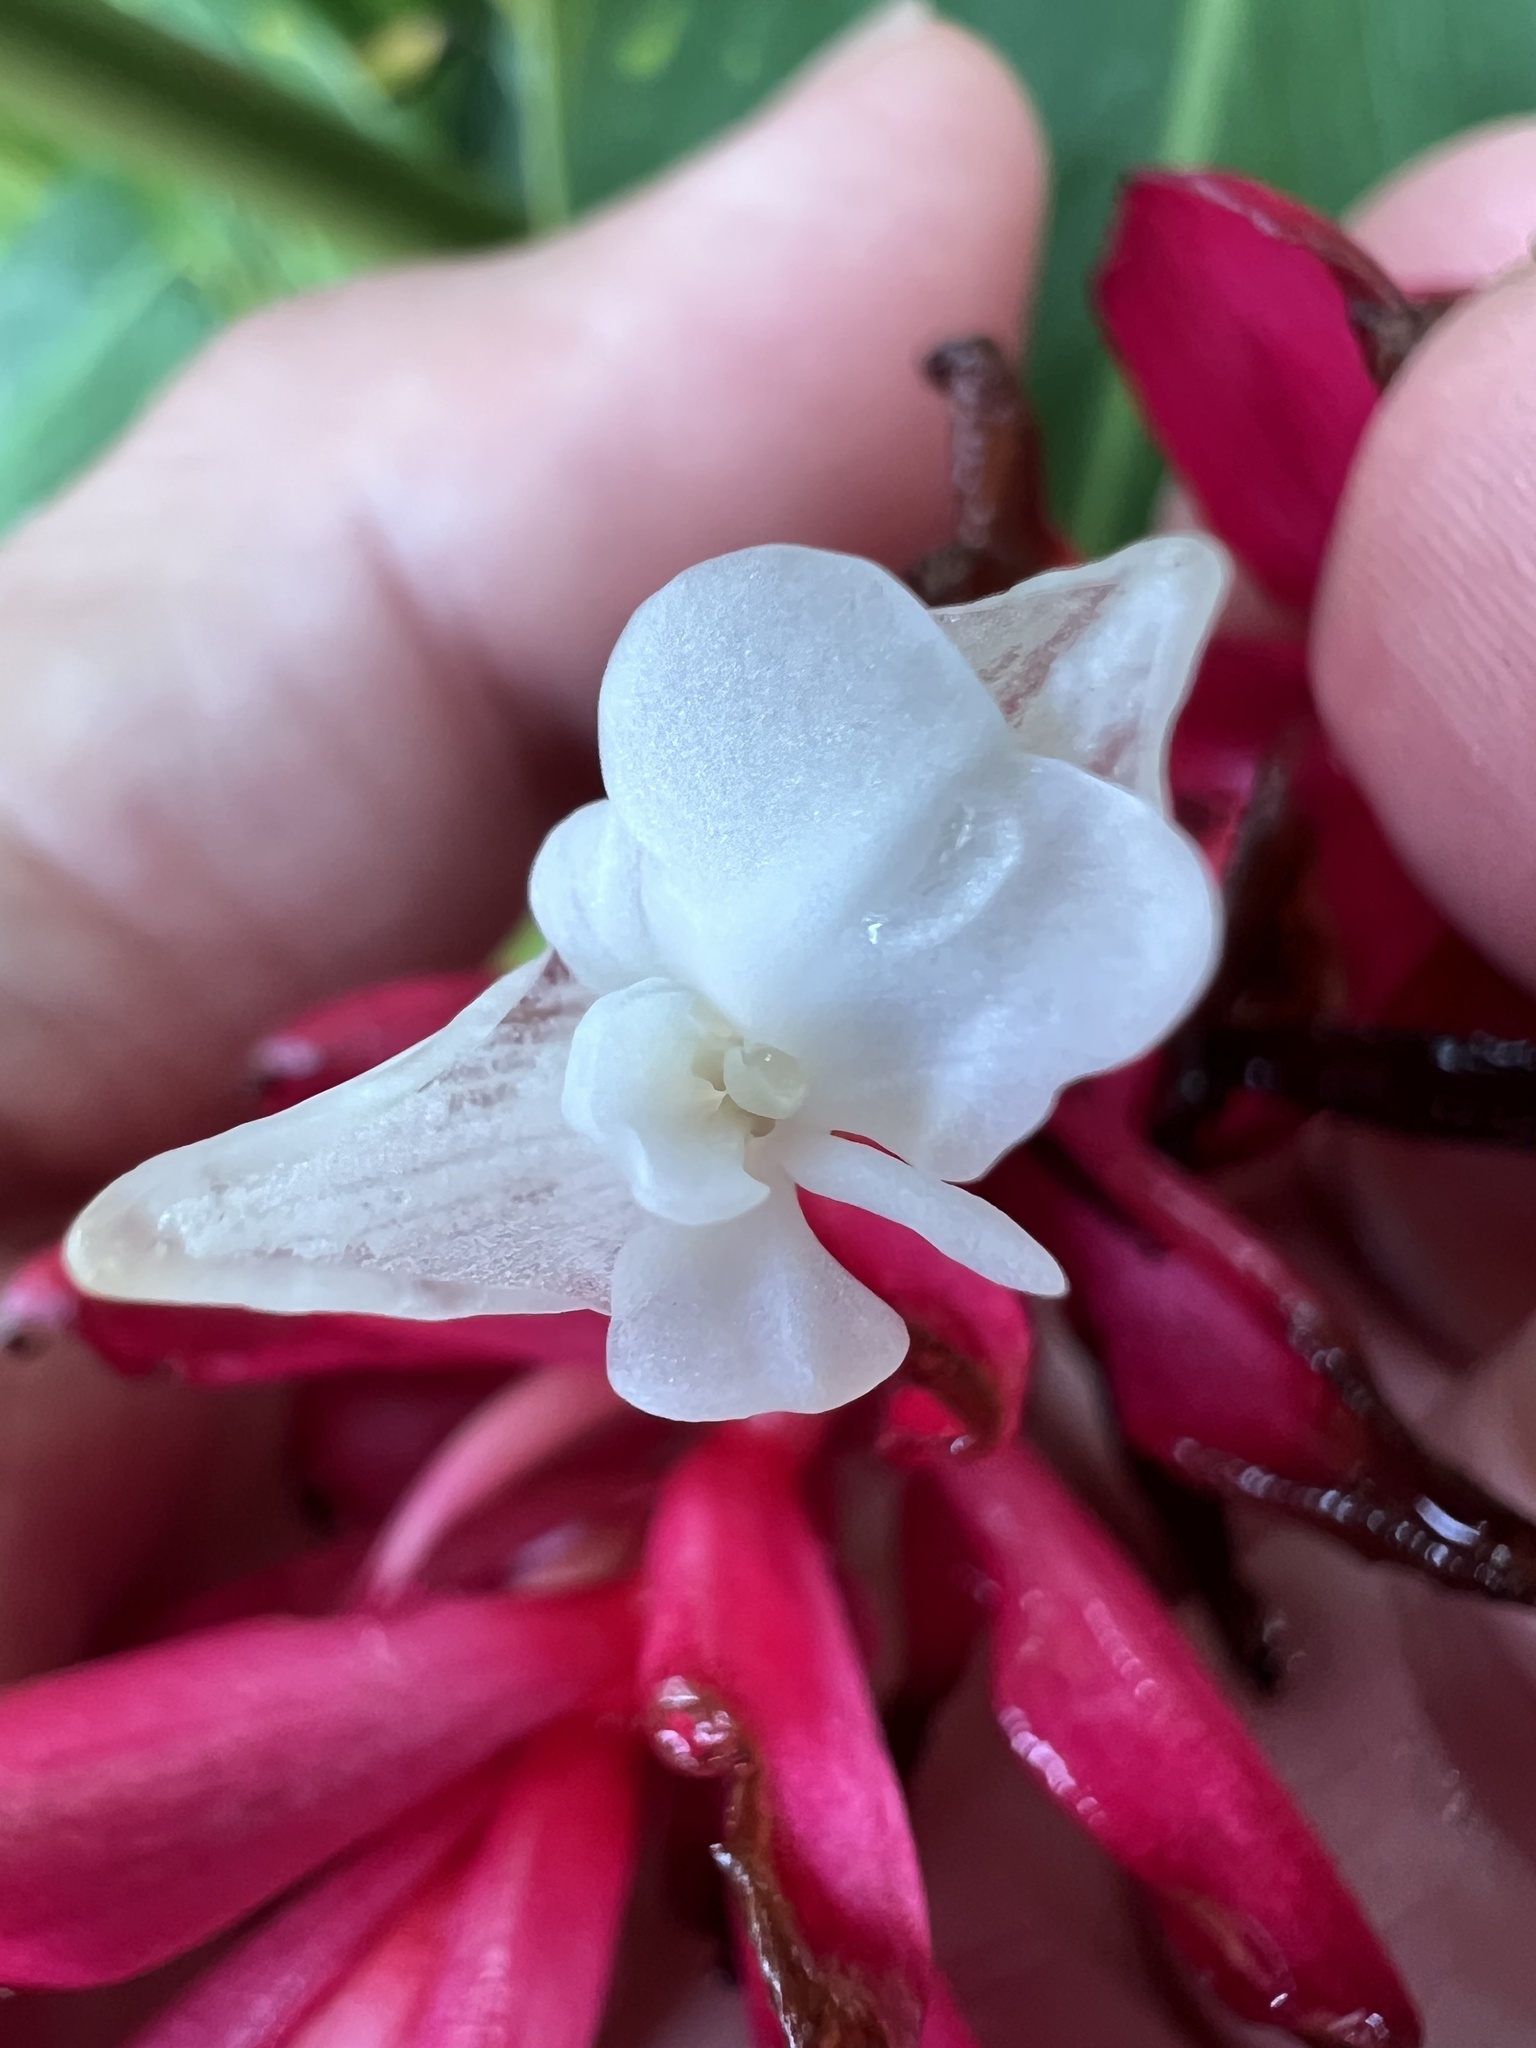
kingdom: Plantae
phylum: Tracheophyta
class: Liliopsida
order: Zingiberales
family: Zingiberaceae
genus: Alpinia
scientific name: Alpinia purpurata
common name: Red ginger
